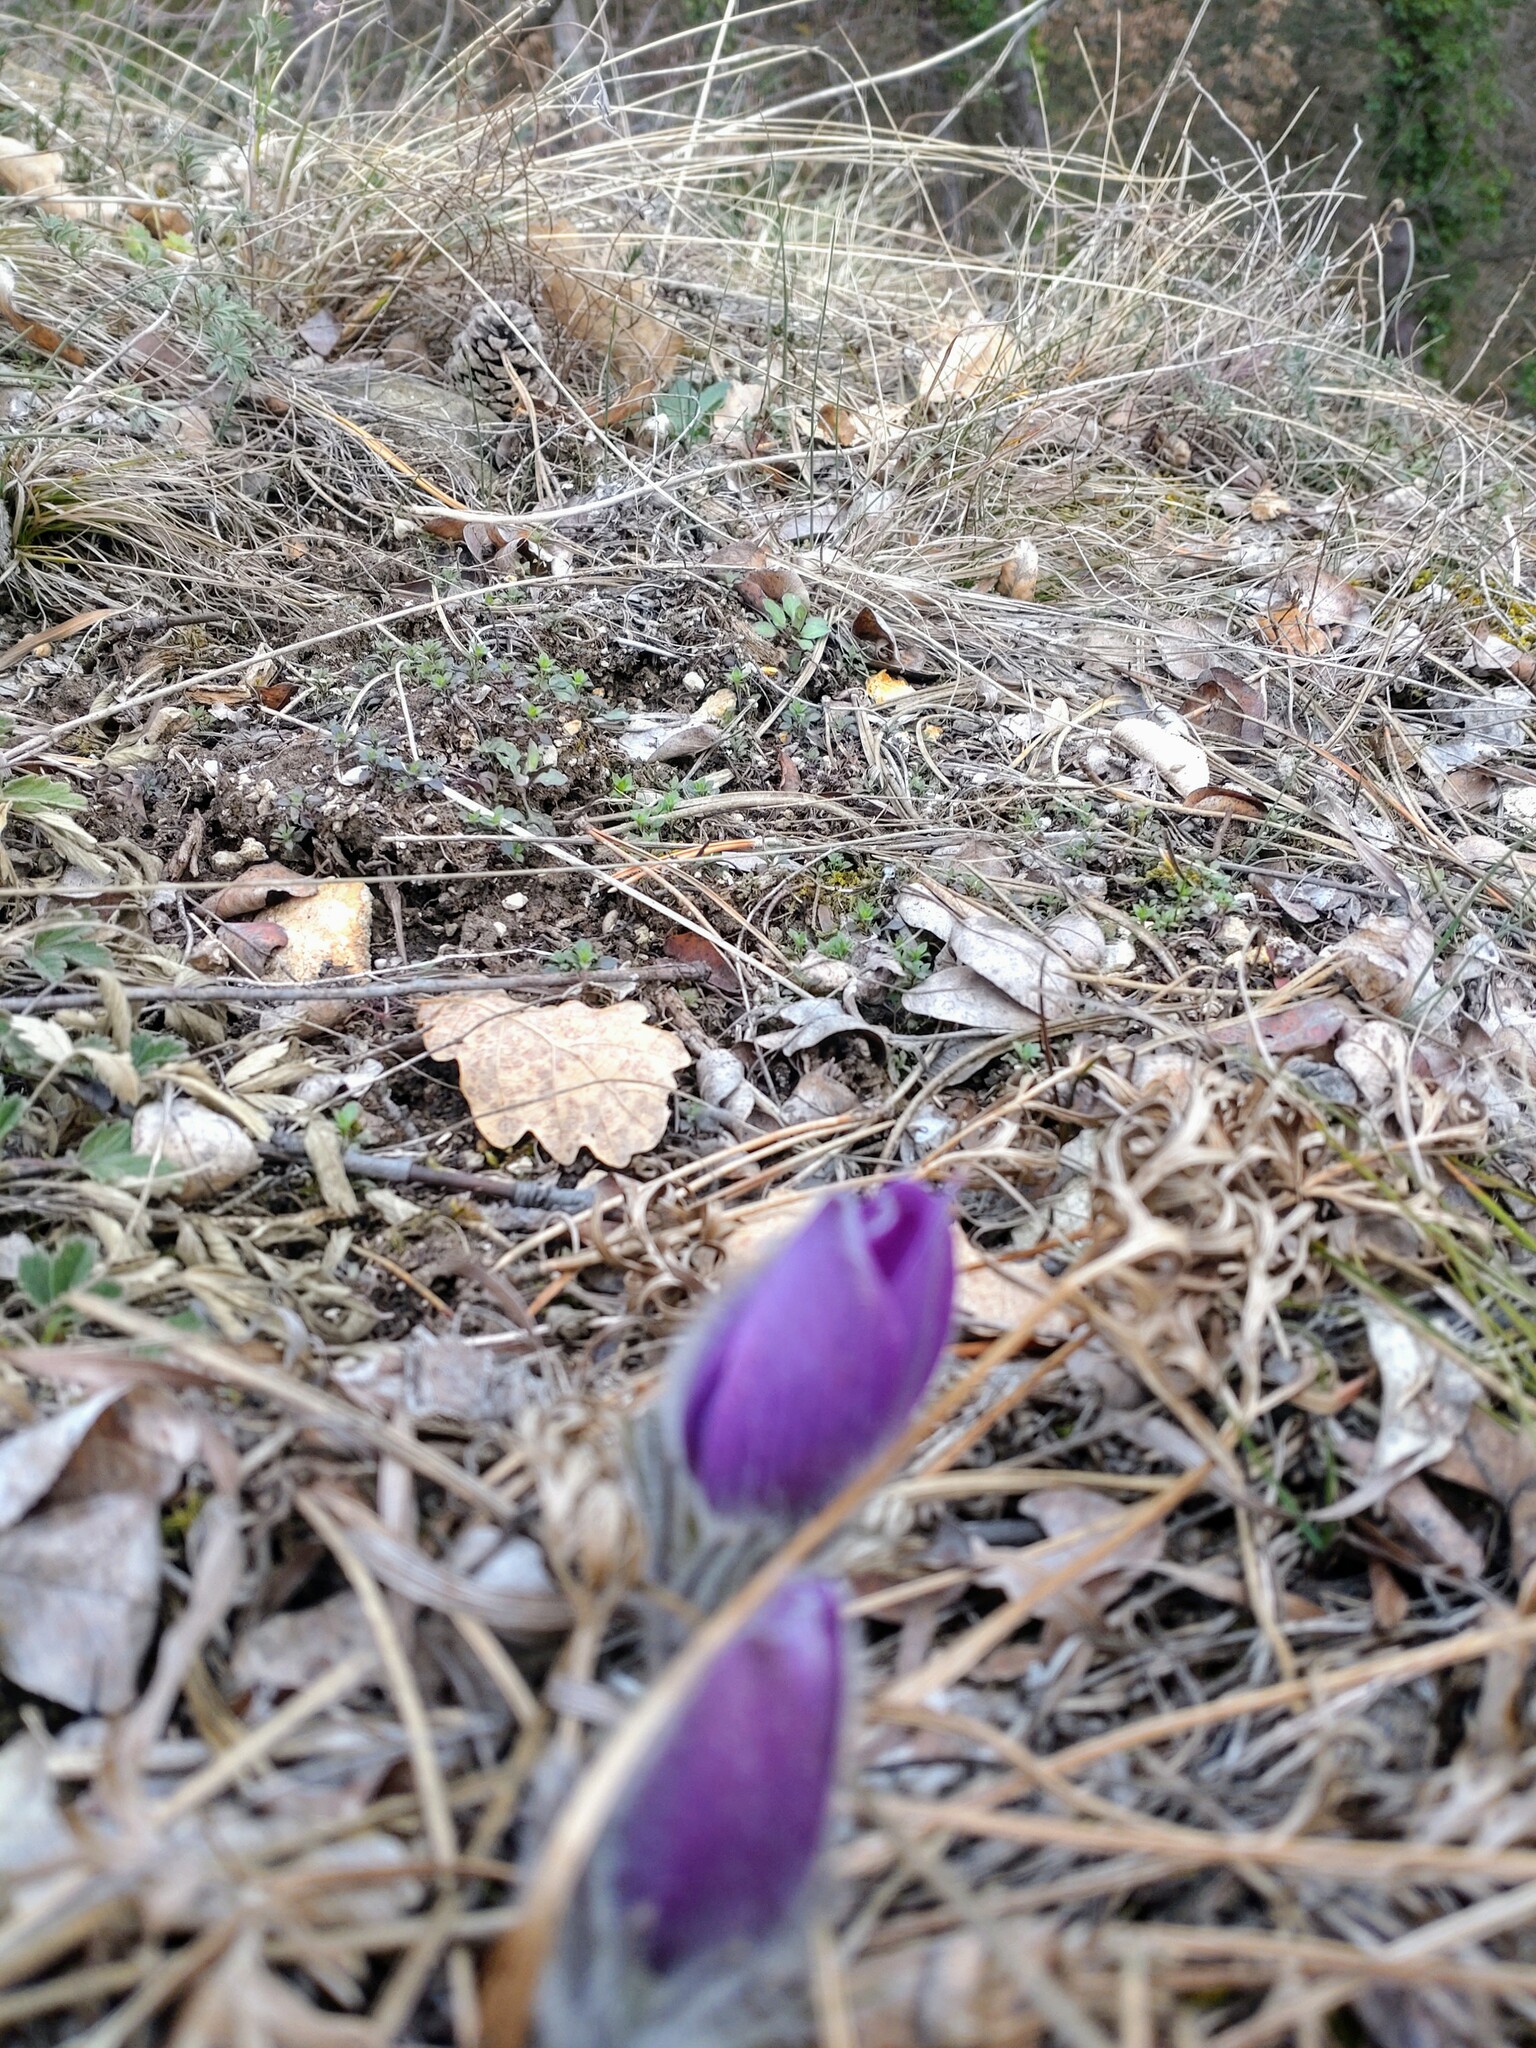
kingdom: Plantae
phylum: Tracheophyta
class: Magnoliopsida
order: Ranunculales
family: Ranunculaceae
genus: Pulsatilla
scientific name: Pulsatilla grandis
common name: Greater pasque flower
